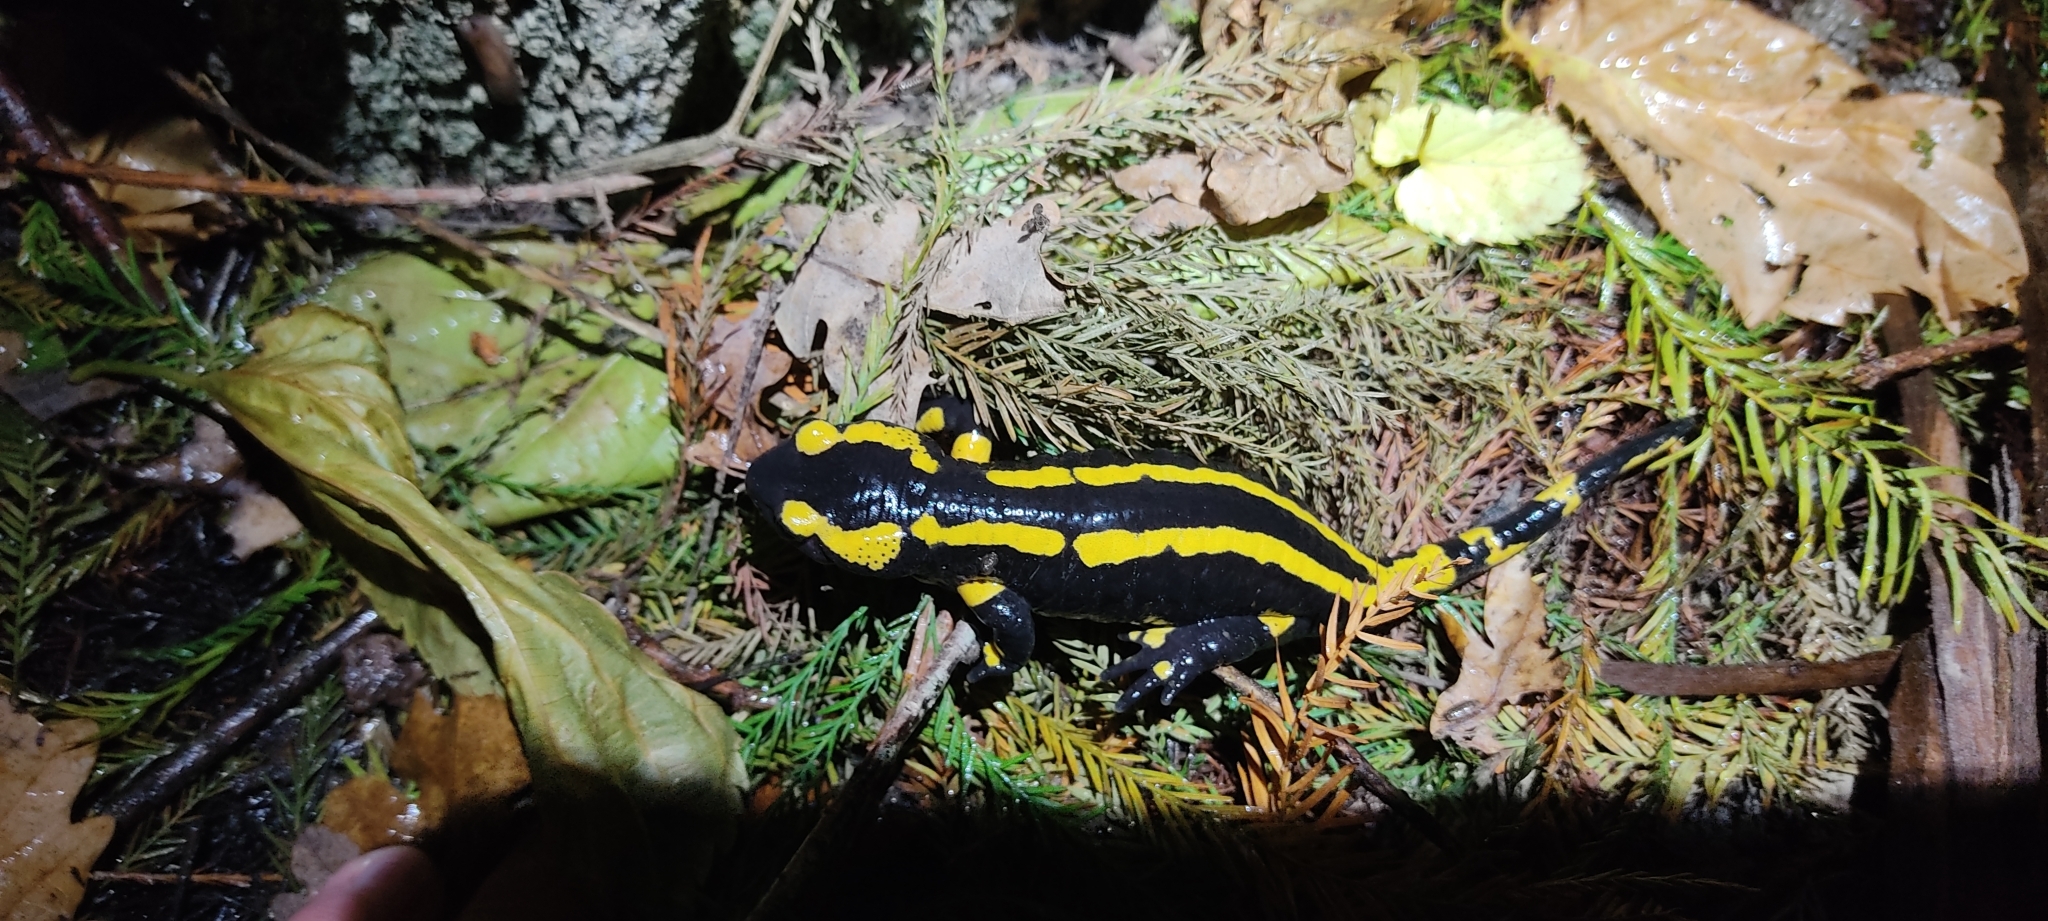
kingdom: Animalia
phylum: Chordata
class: Amphibia
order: Caudata
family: Salamandridae
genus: Salamandra
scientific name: Salamandra salamandra
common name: Fire salamander
